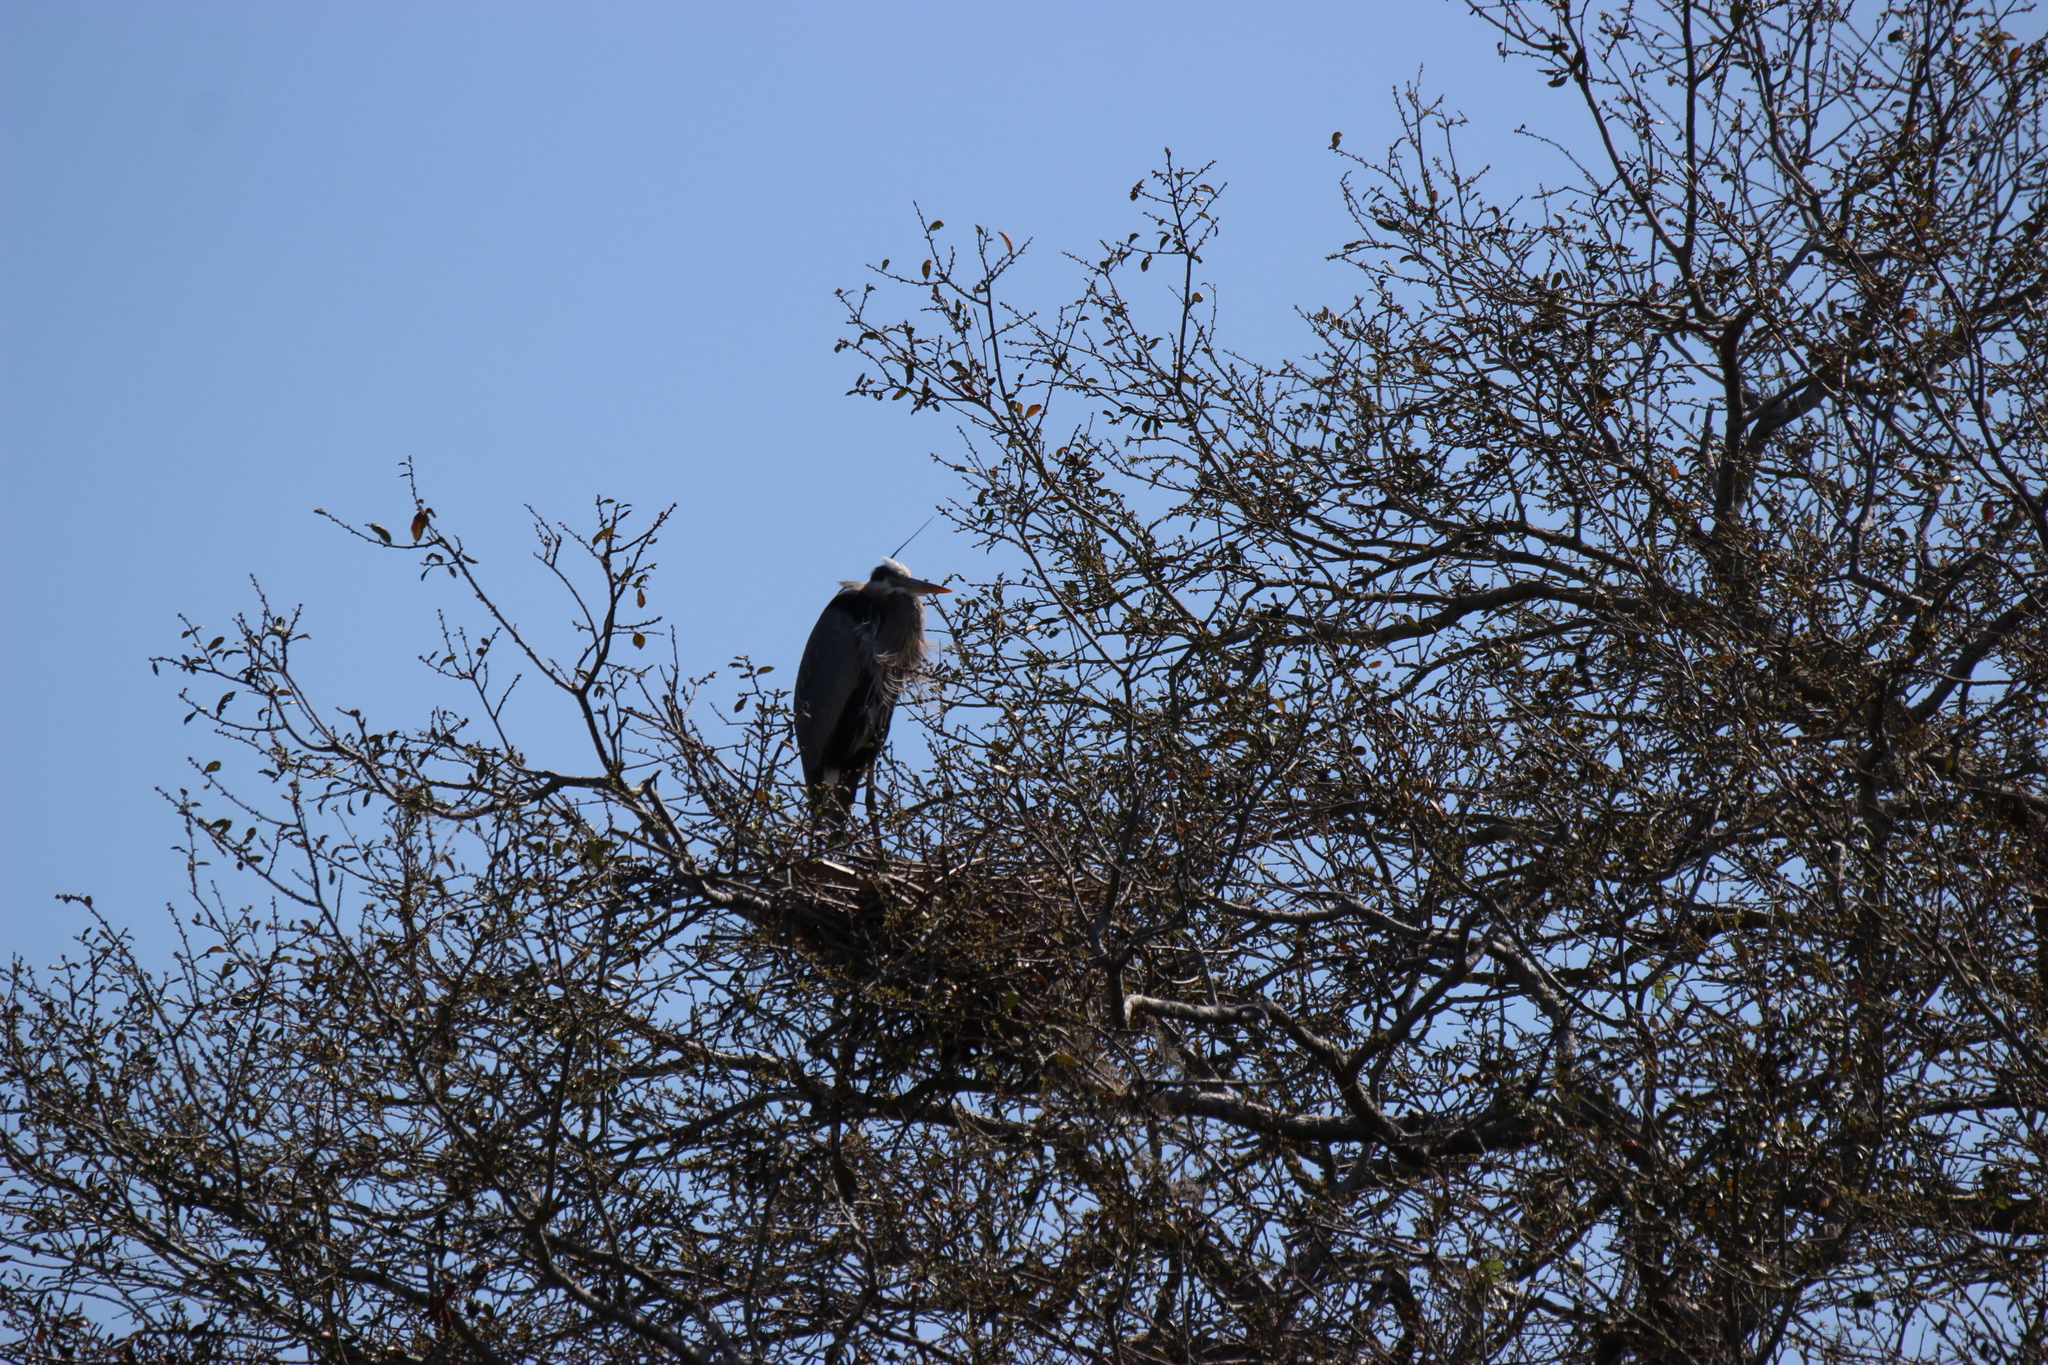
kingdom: Animalia
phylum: Chordata
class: Aves
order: Pelecaniformes
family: Ardeidae
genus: Ardea
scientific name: Ardea herodias
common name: Great blue heron
